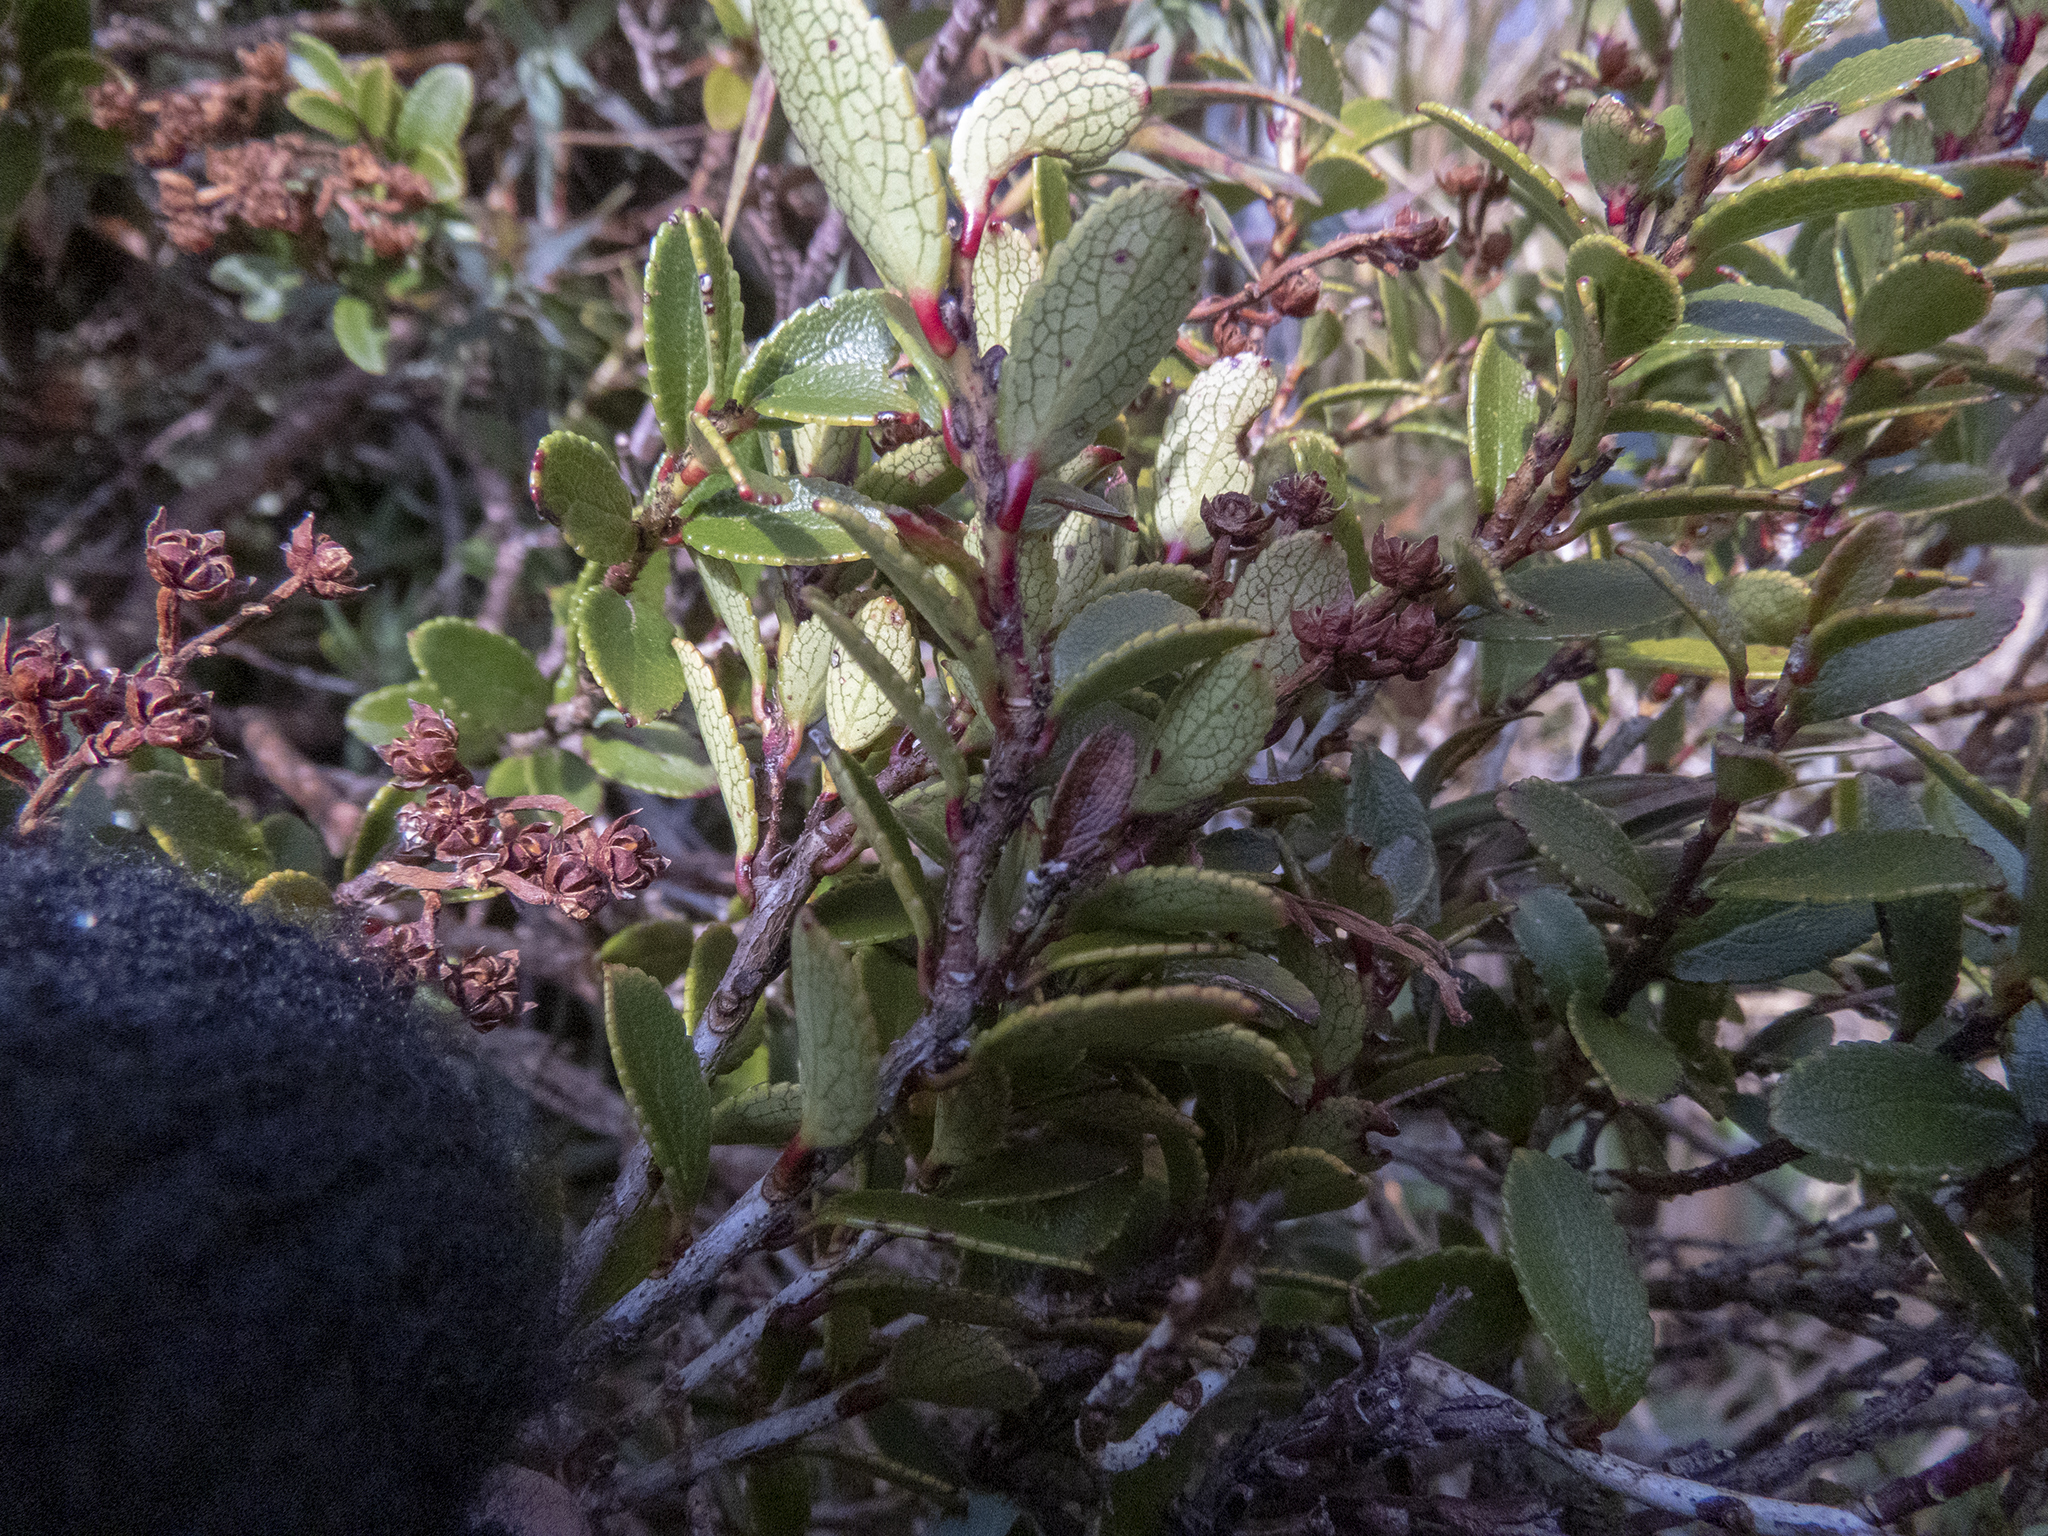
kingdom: Plantae
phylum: Tracheophyta
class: Magnoliopsida
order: Ericales
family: Ericaceae
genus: Gaultheria
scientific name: Gaultheria crassa
